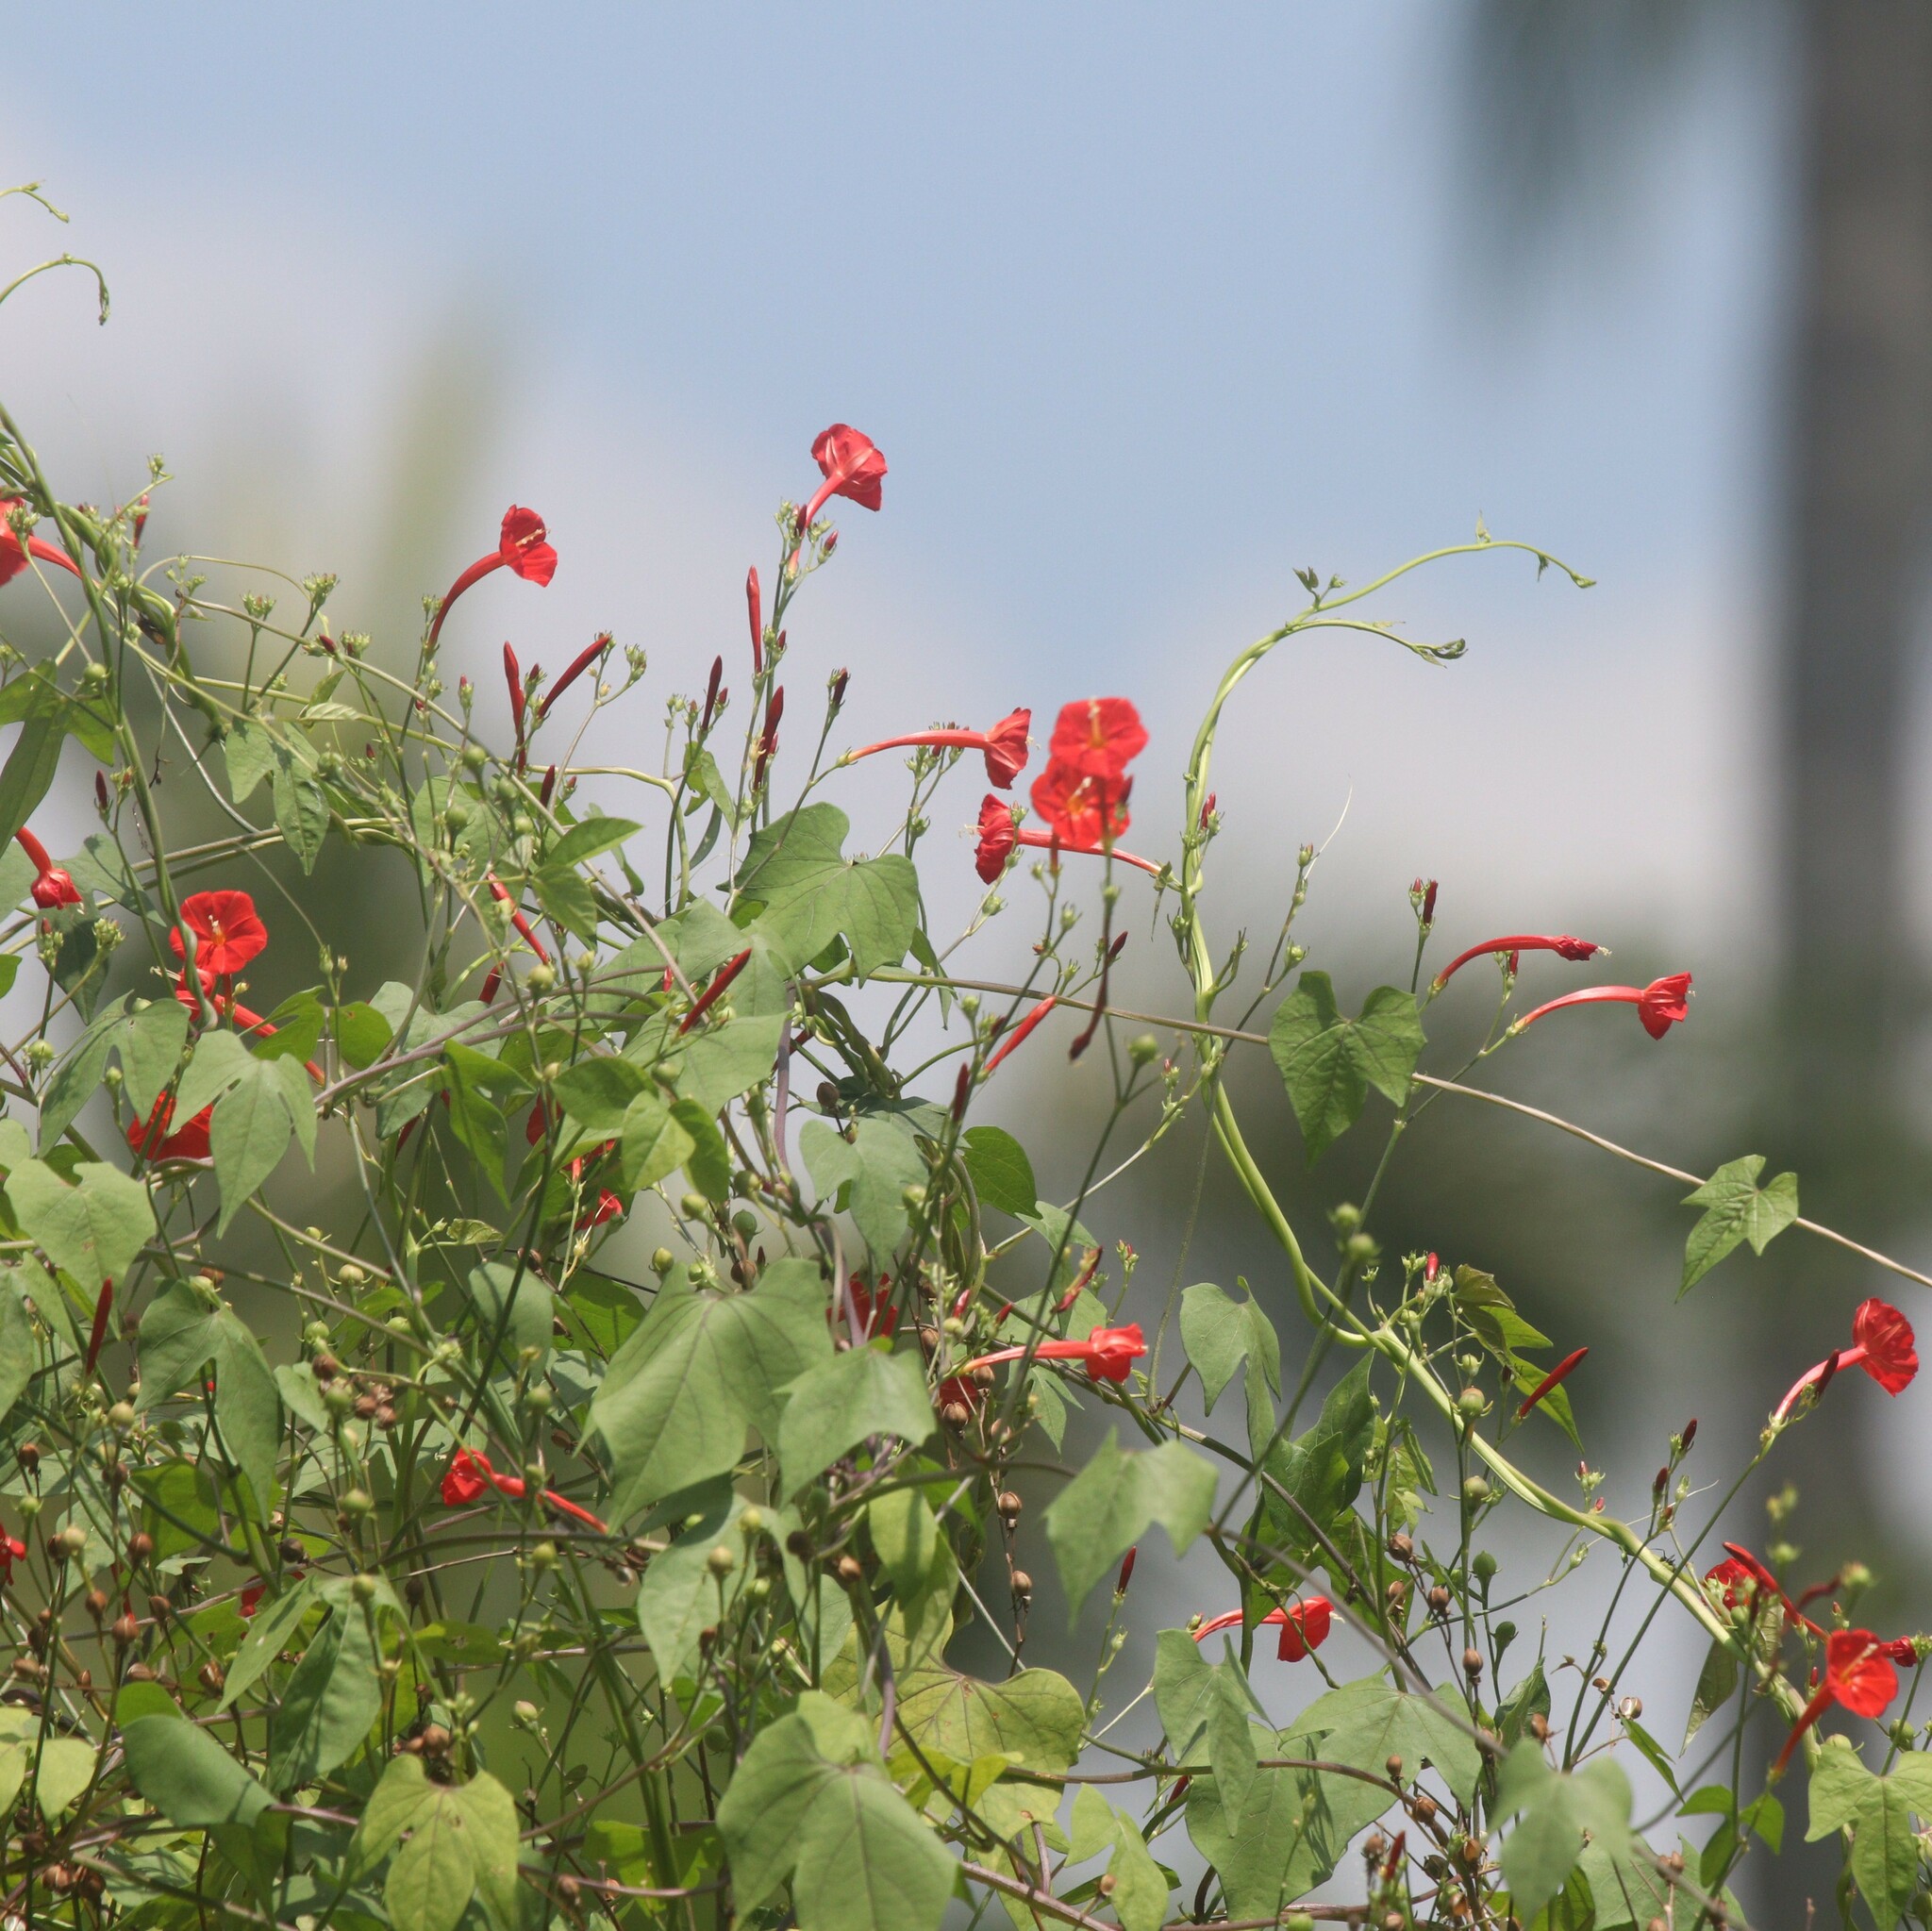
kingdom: Plantae
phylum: Tracheophyta
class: Magnoliopsida
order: Solanales
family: Convolvulaceae
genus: Ipomoea
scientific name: Ipomoea hederifolia
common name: Ivy-leaf morning-glory
